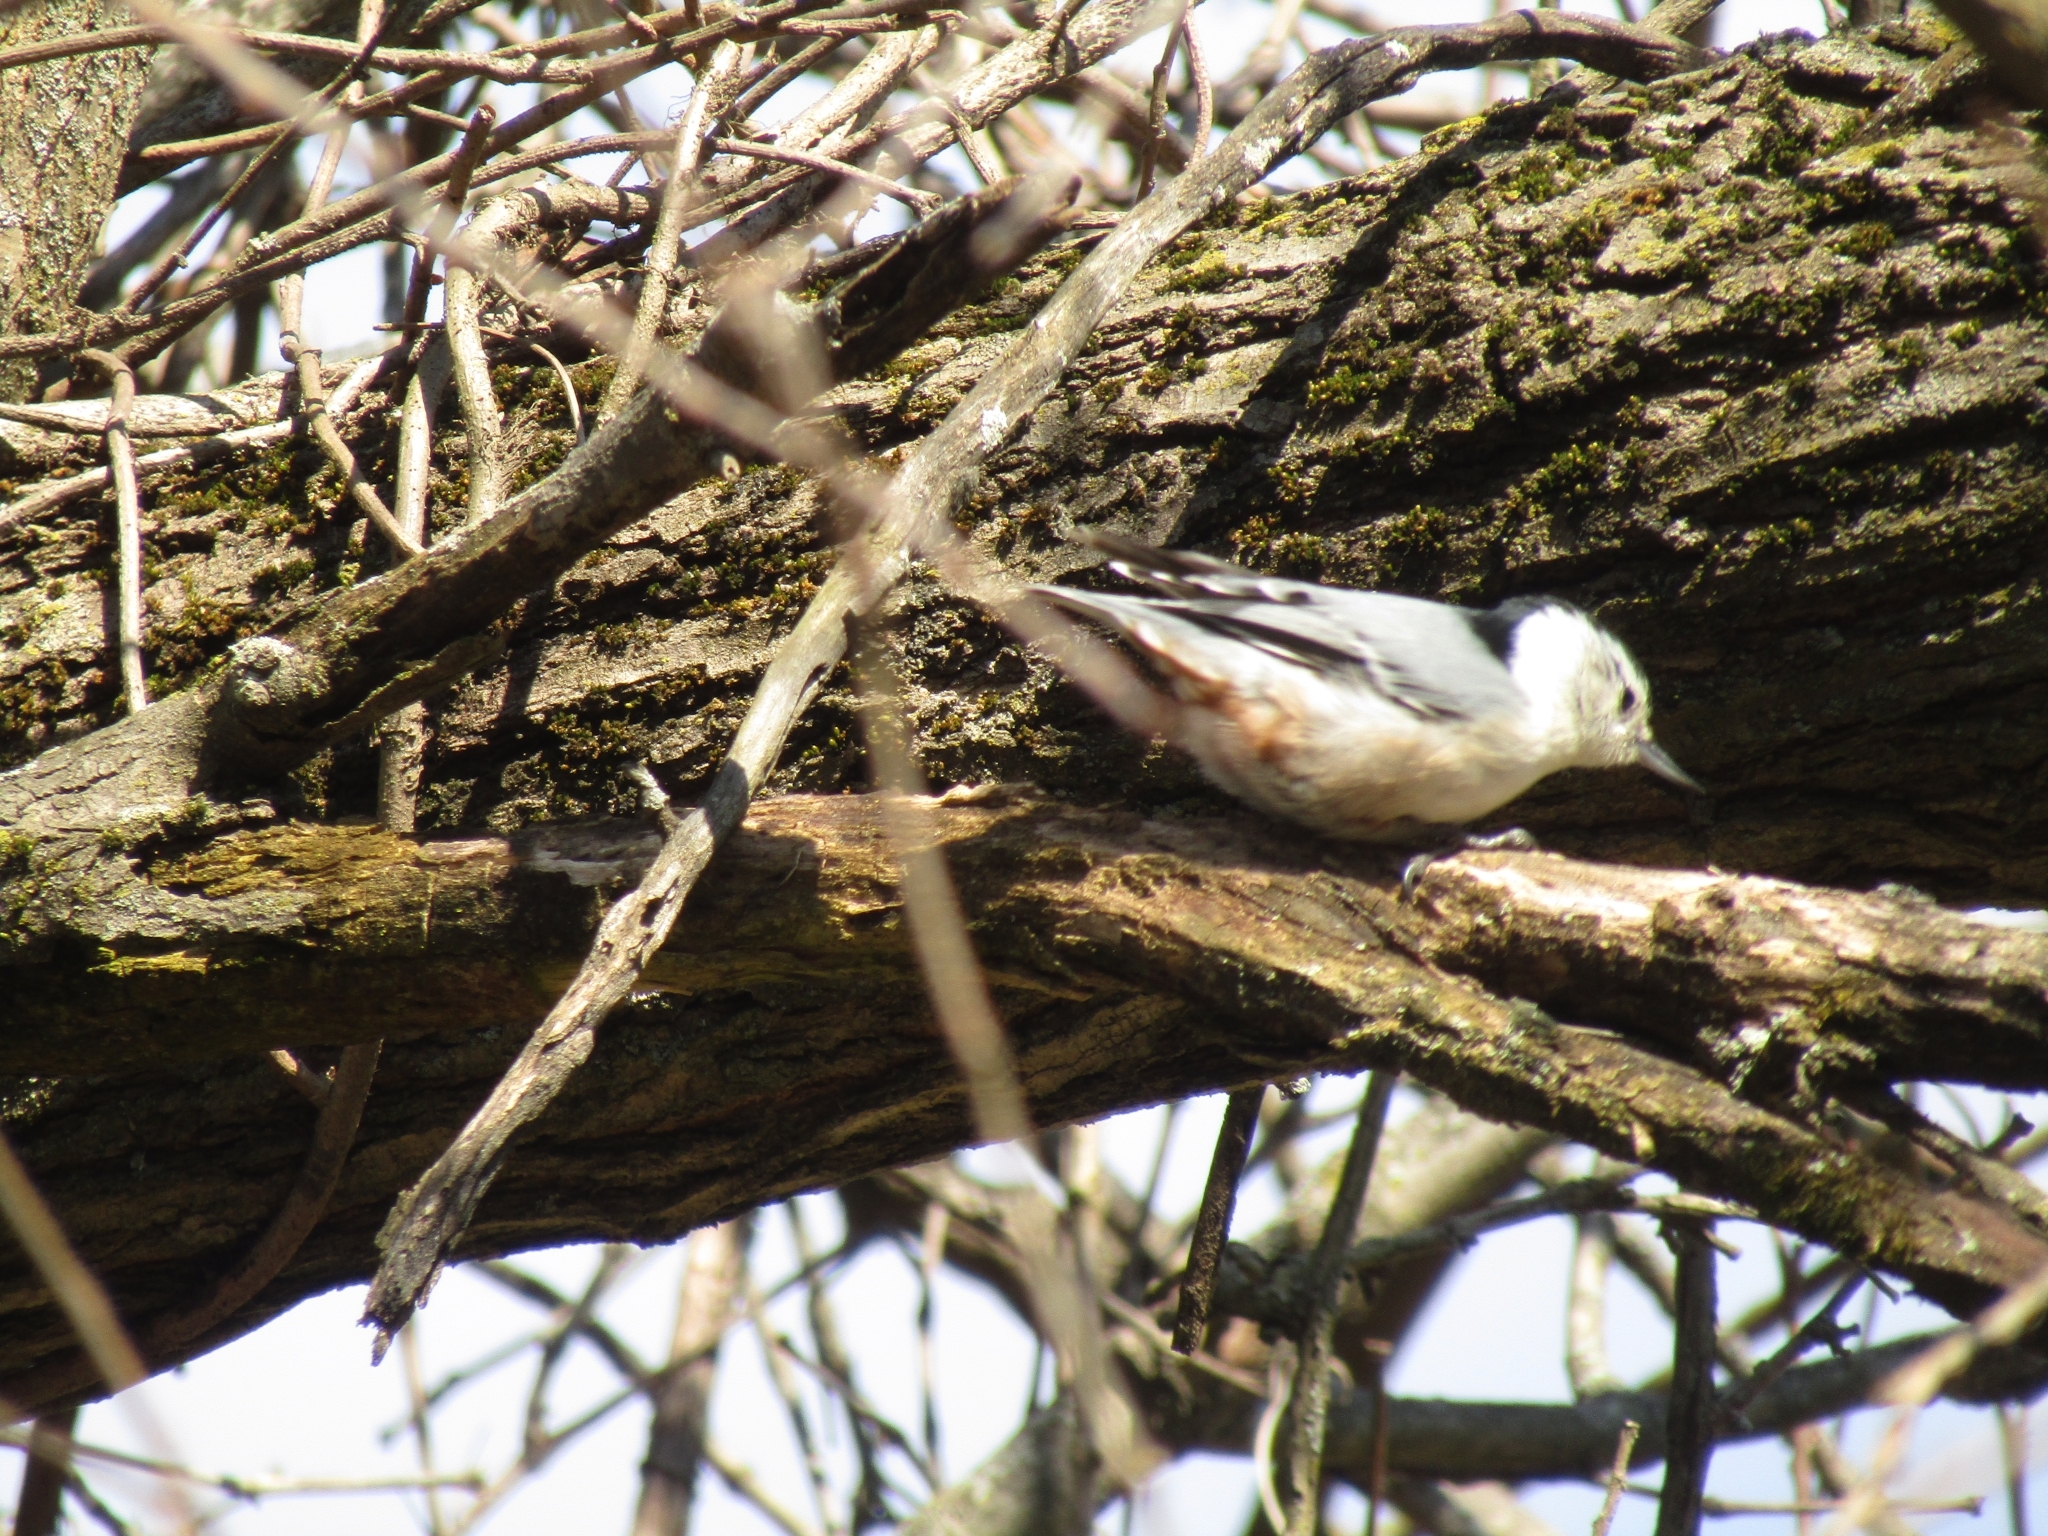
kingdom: Animalia
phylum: Chordata
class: Aves
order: Passeriformes
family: Sittidae
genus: Sitta
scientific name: Sitta carolinensis
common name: White-breasted nuthatch
